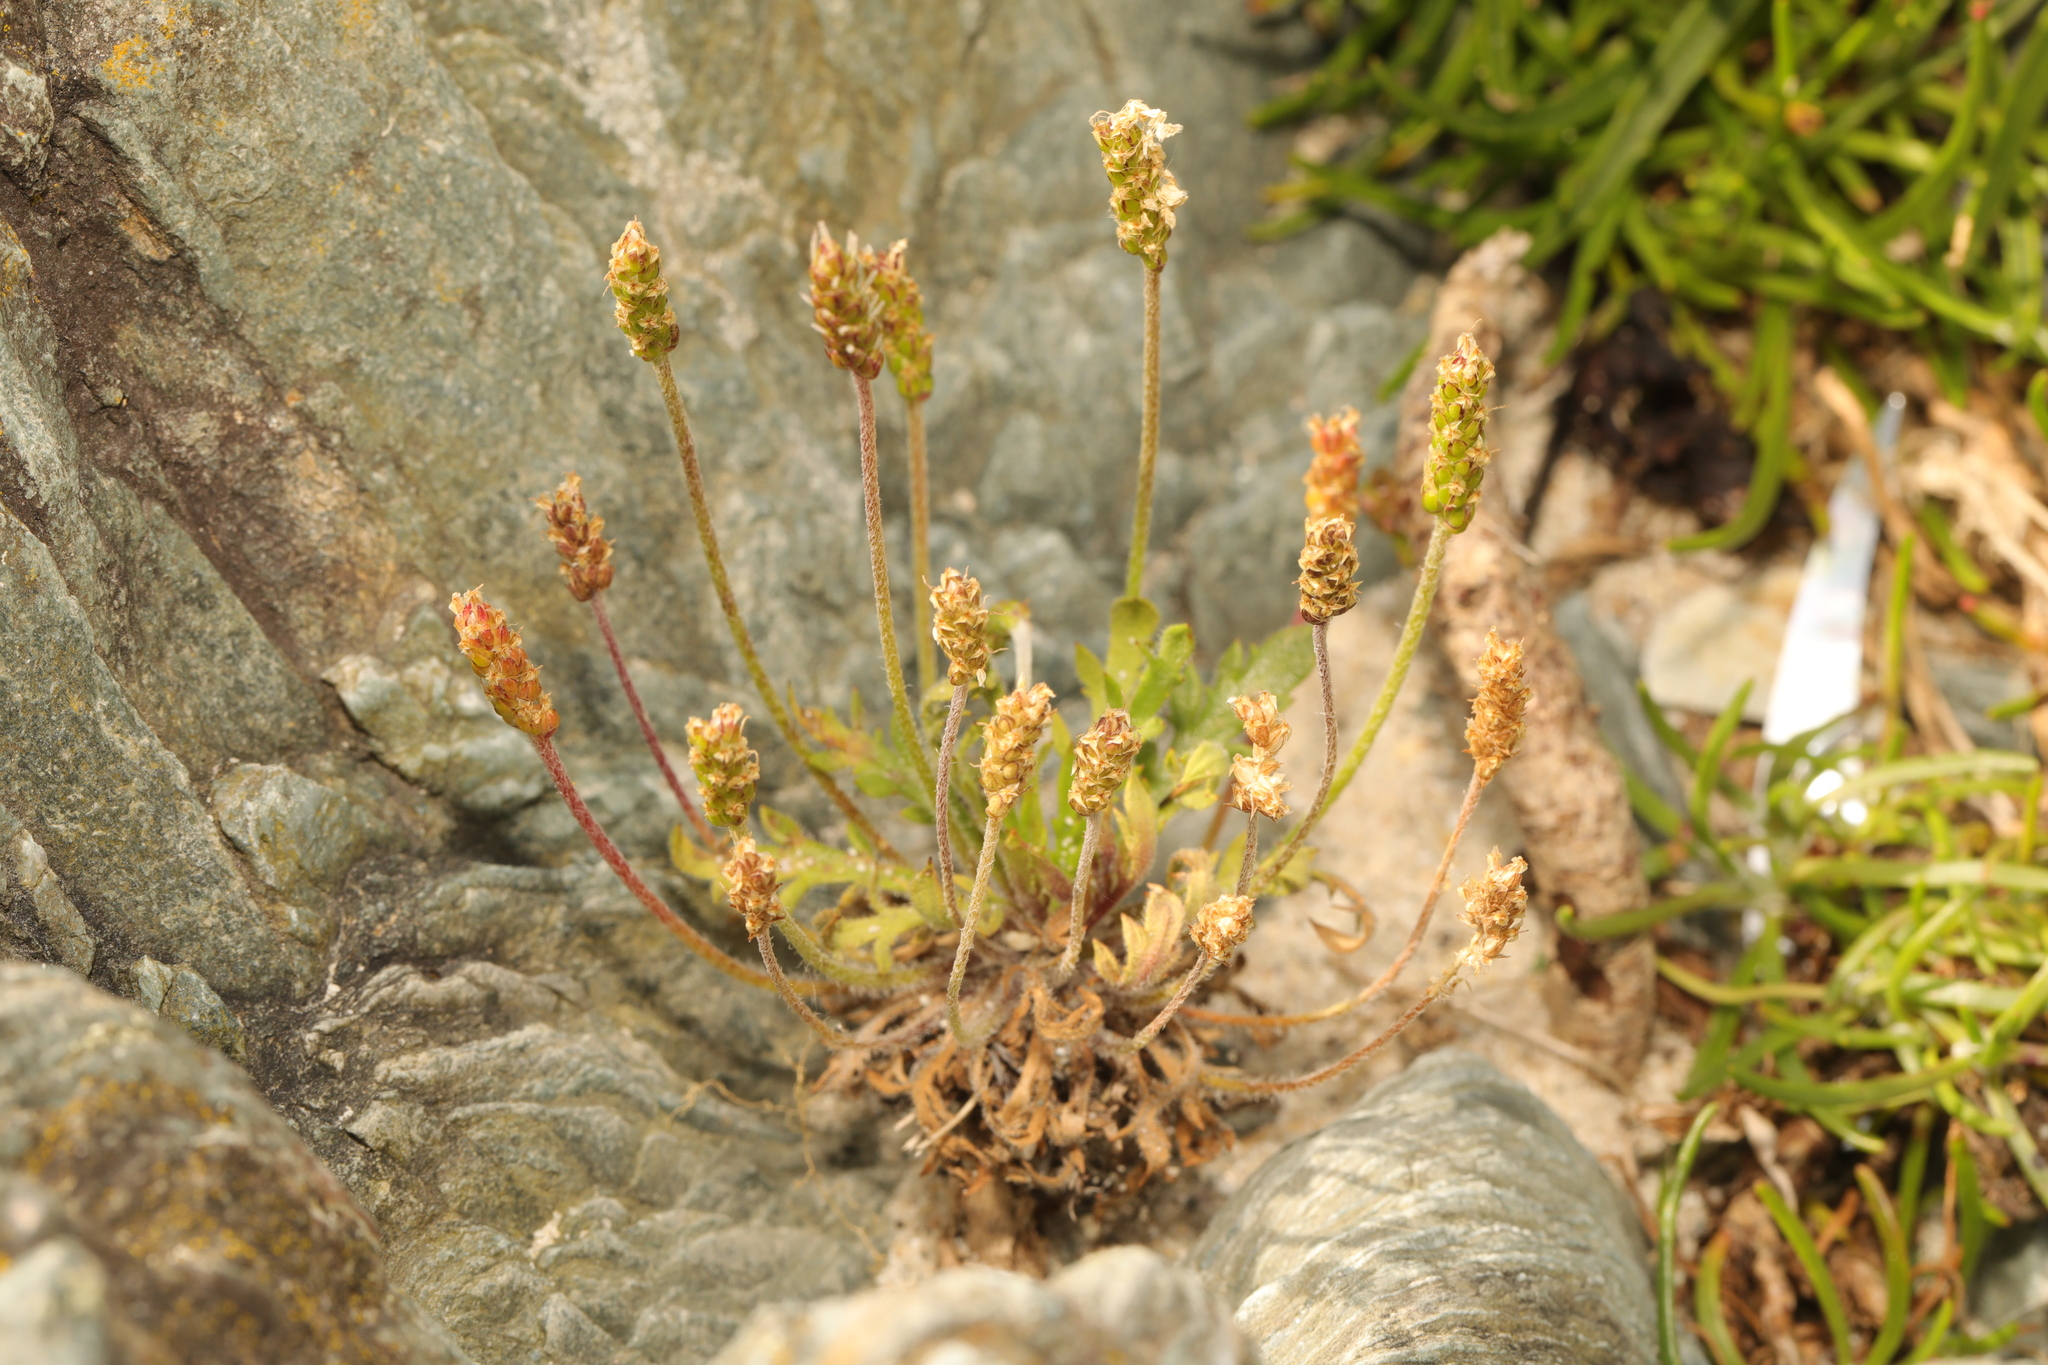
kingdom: Plantae
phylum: Tracheophyta
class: Magnoliopsida
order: Lamiales
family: Plantaginaceae
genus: Plantago
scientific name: Plantago coronopus
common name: Buck's-horn plantain
